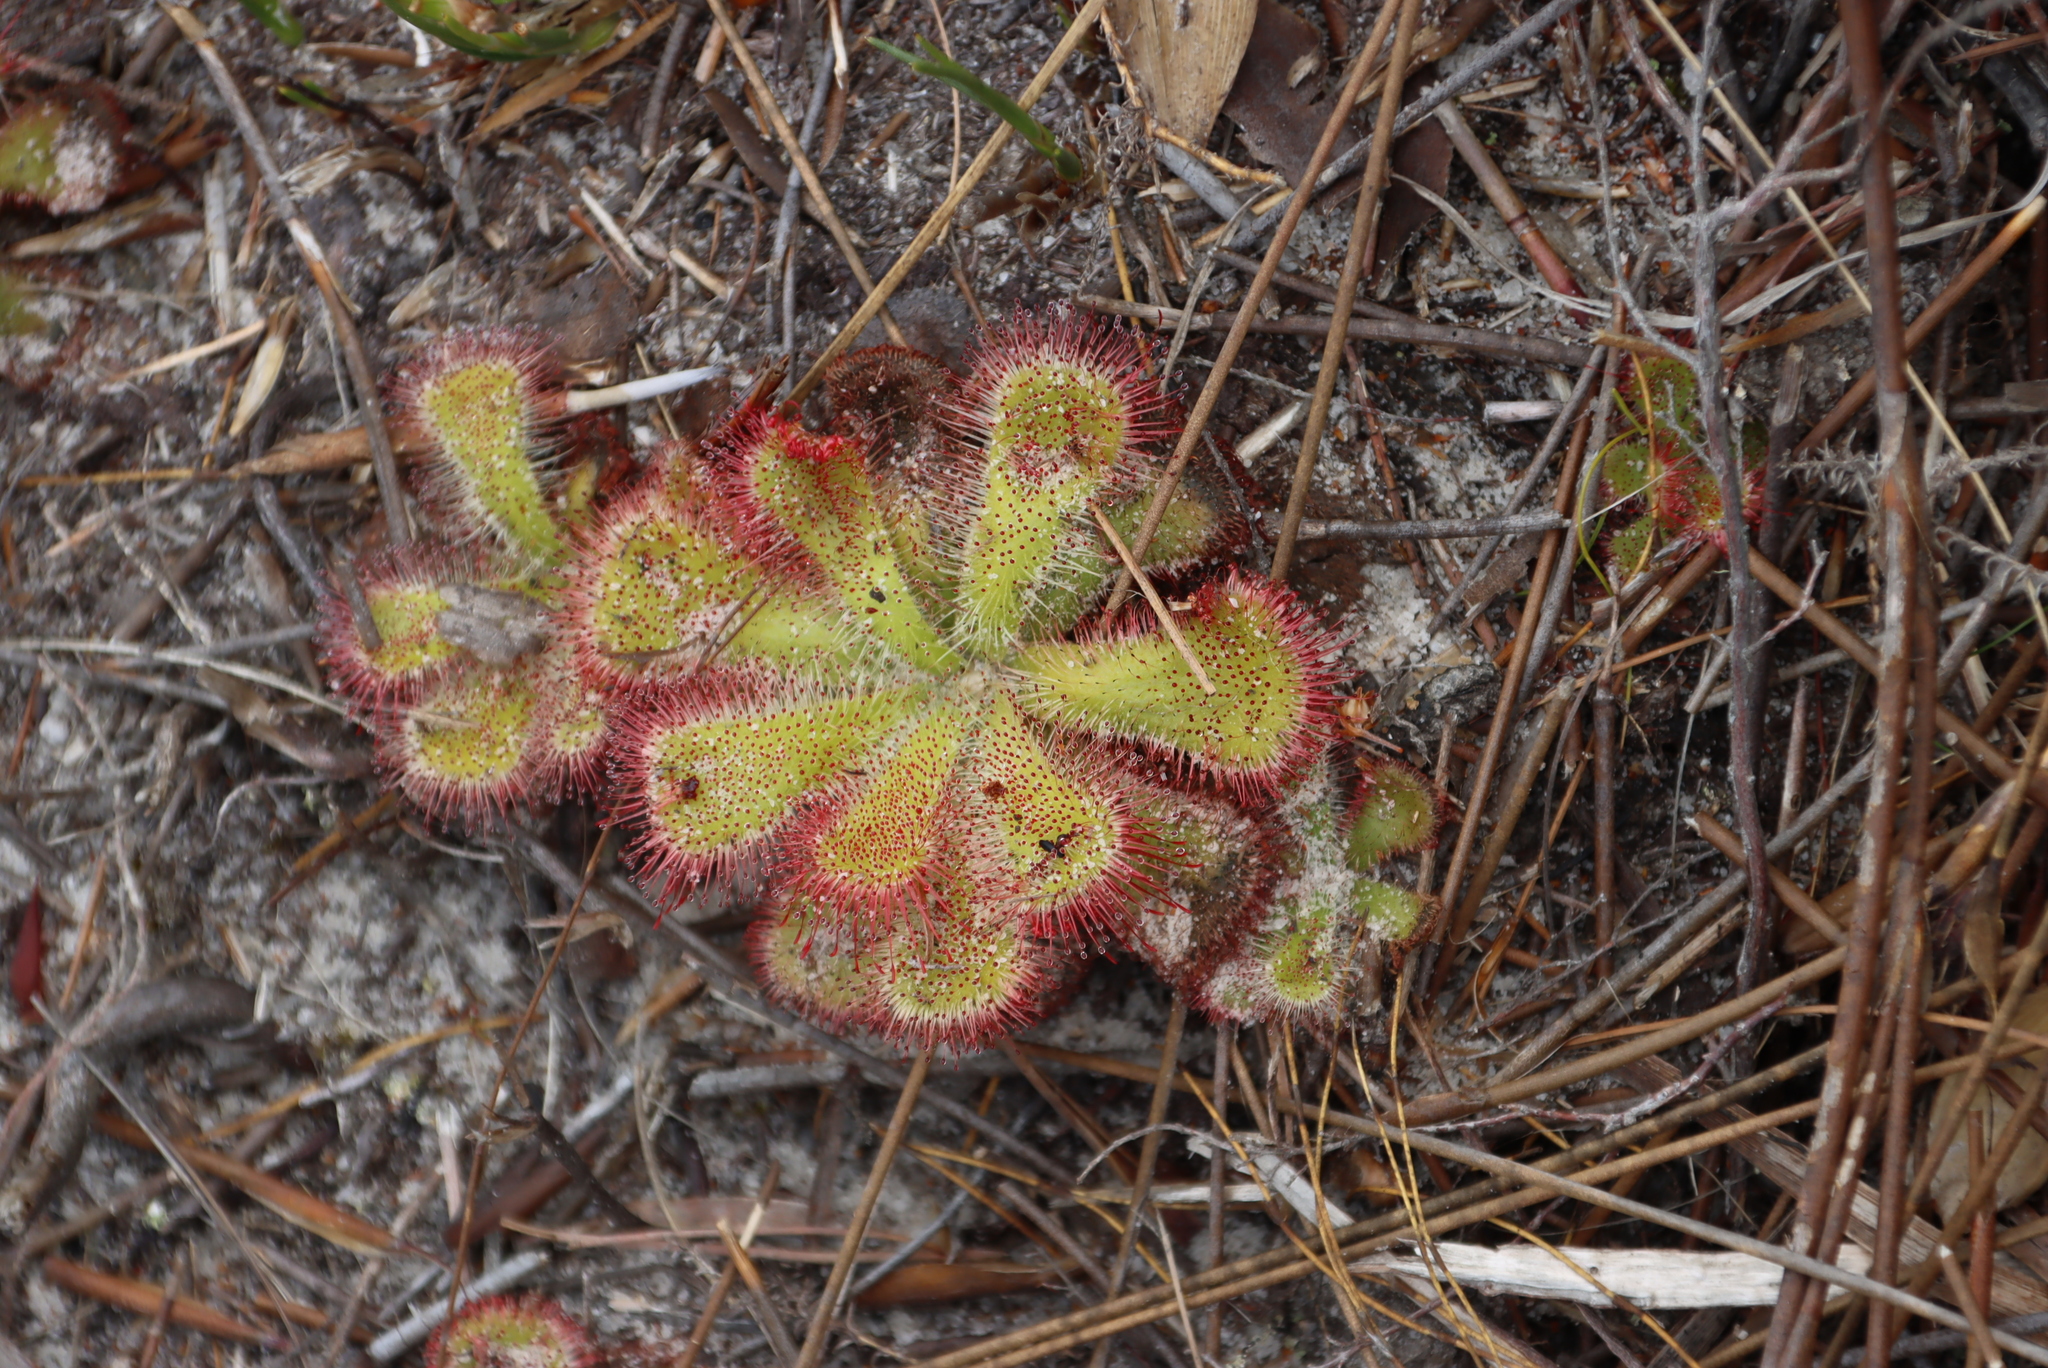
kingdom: Plantae
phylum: Tracheophyta
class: Magnoliopsida
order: Caryophyllales
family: Droseraceae
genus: Drosera
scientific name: Drosera cuneifolia
